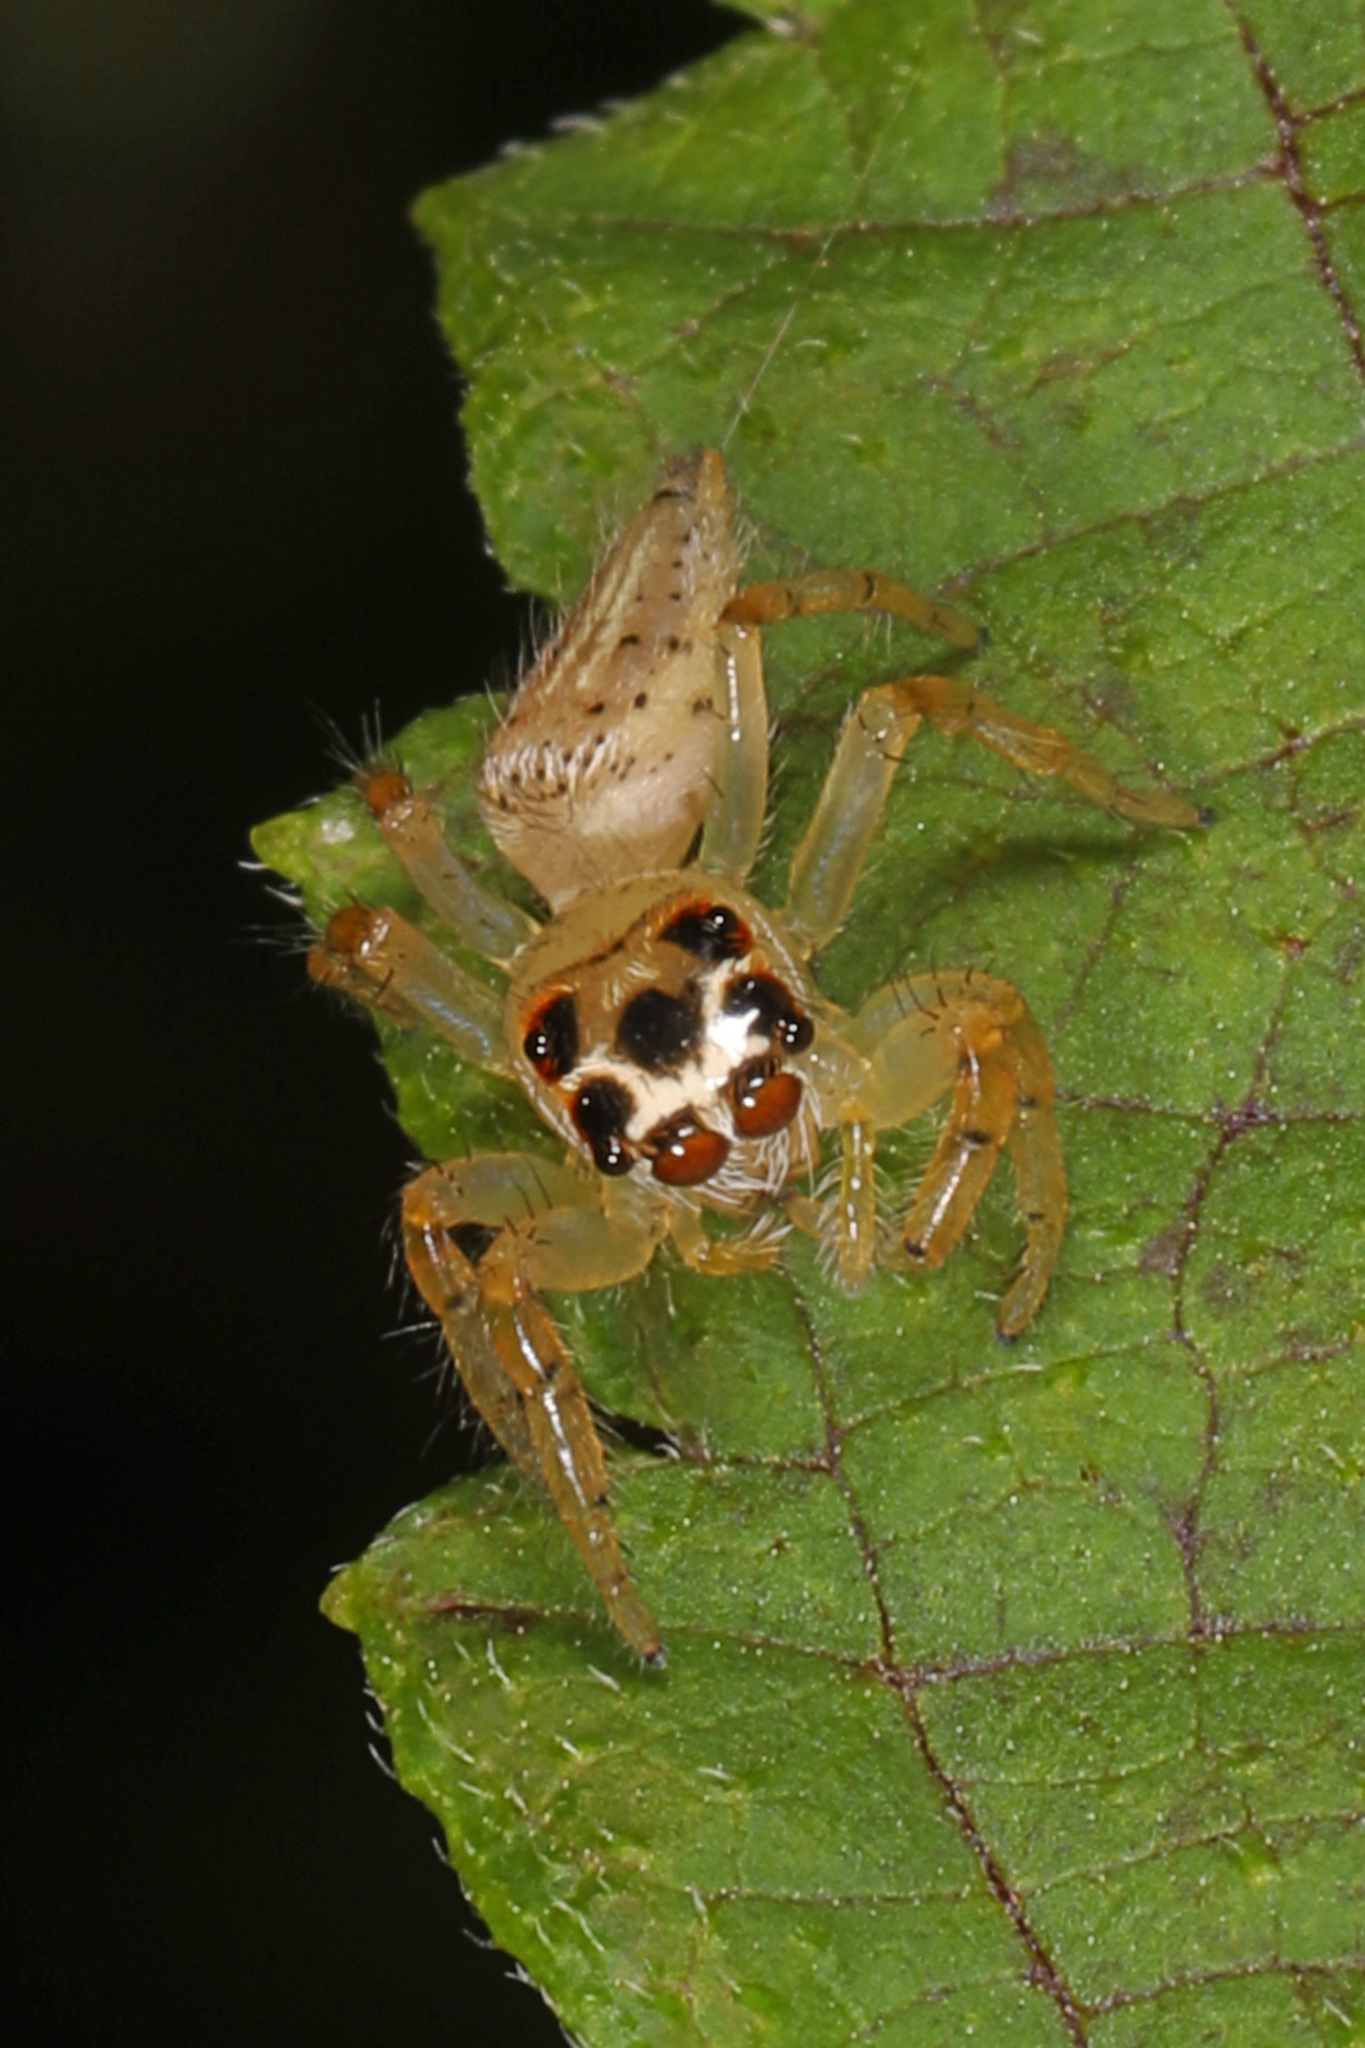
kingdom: Animalia
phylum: Arthropoda
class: Arachnida
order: Araneae
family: Salticidae
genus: Colonus
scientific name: Colonus sylvanus
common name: Jumping spiders
